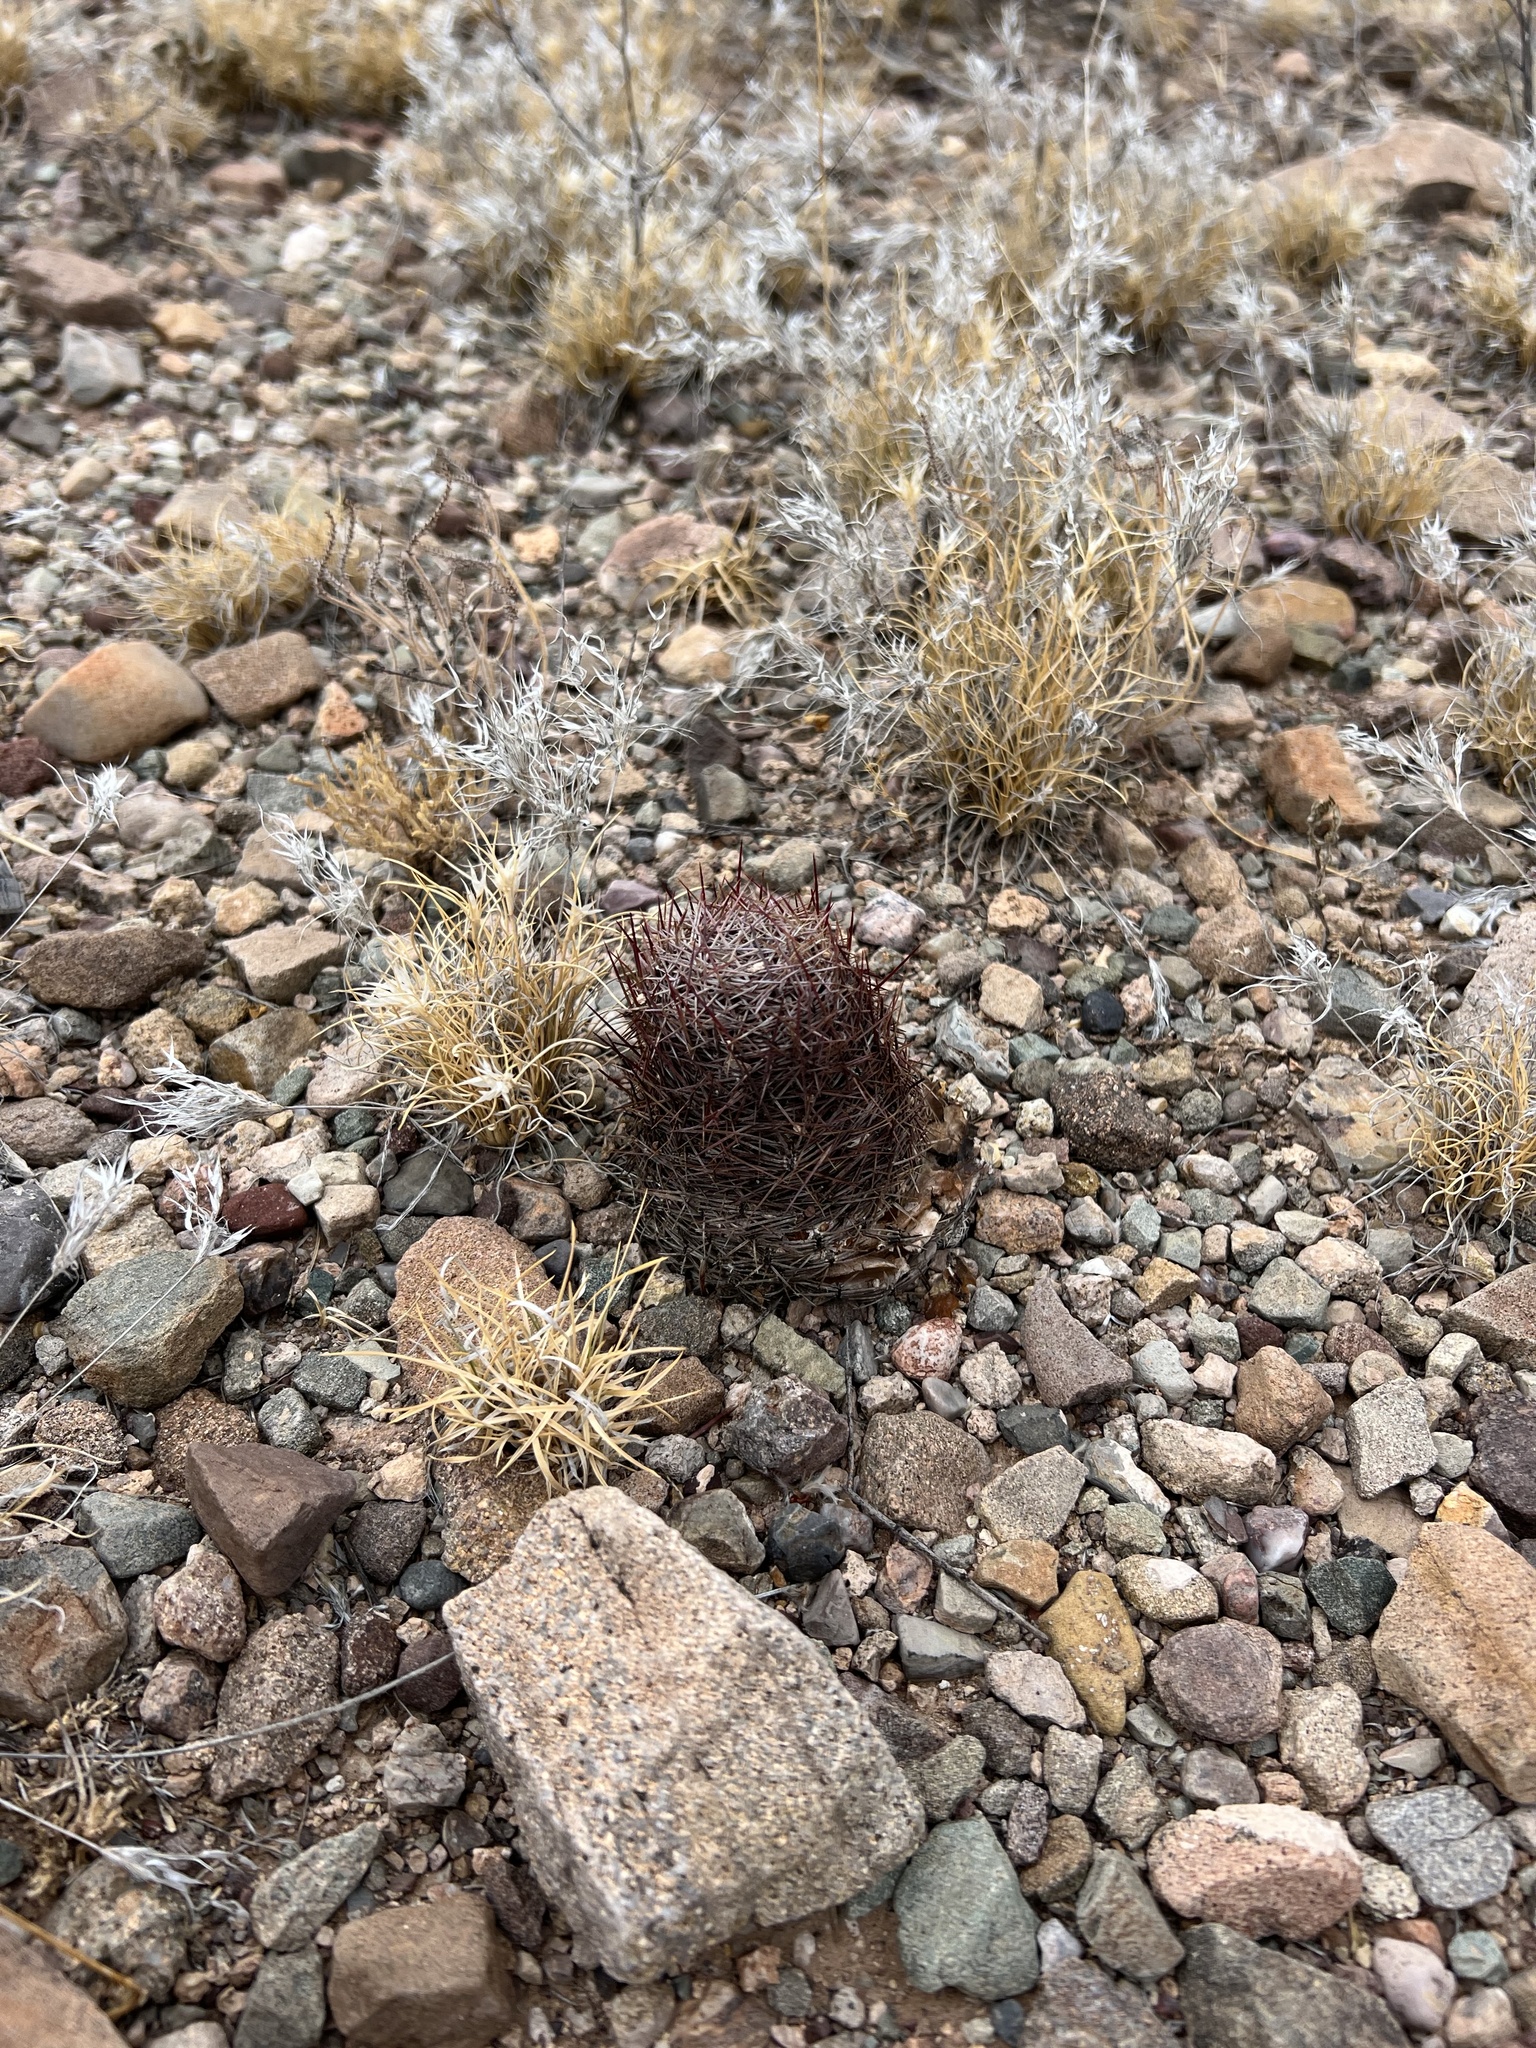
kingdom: Plantae
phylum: Tracheophyta
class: Magnoliopsida
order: Caryophyllales
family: Cactaceae
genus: Sclerocactus
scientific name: Sclerocactus johnsonii
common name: Eight-spine fishhook cactus
